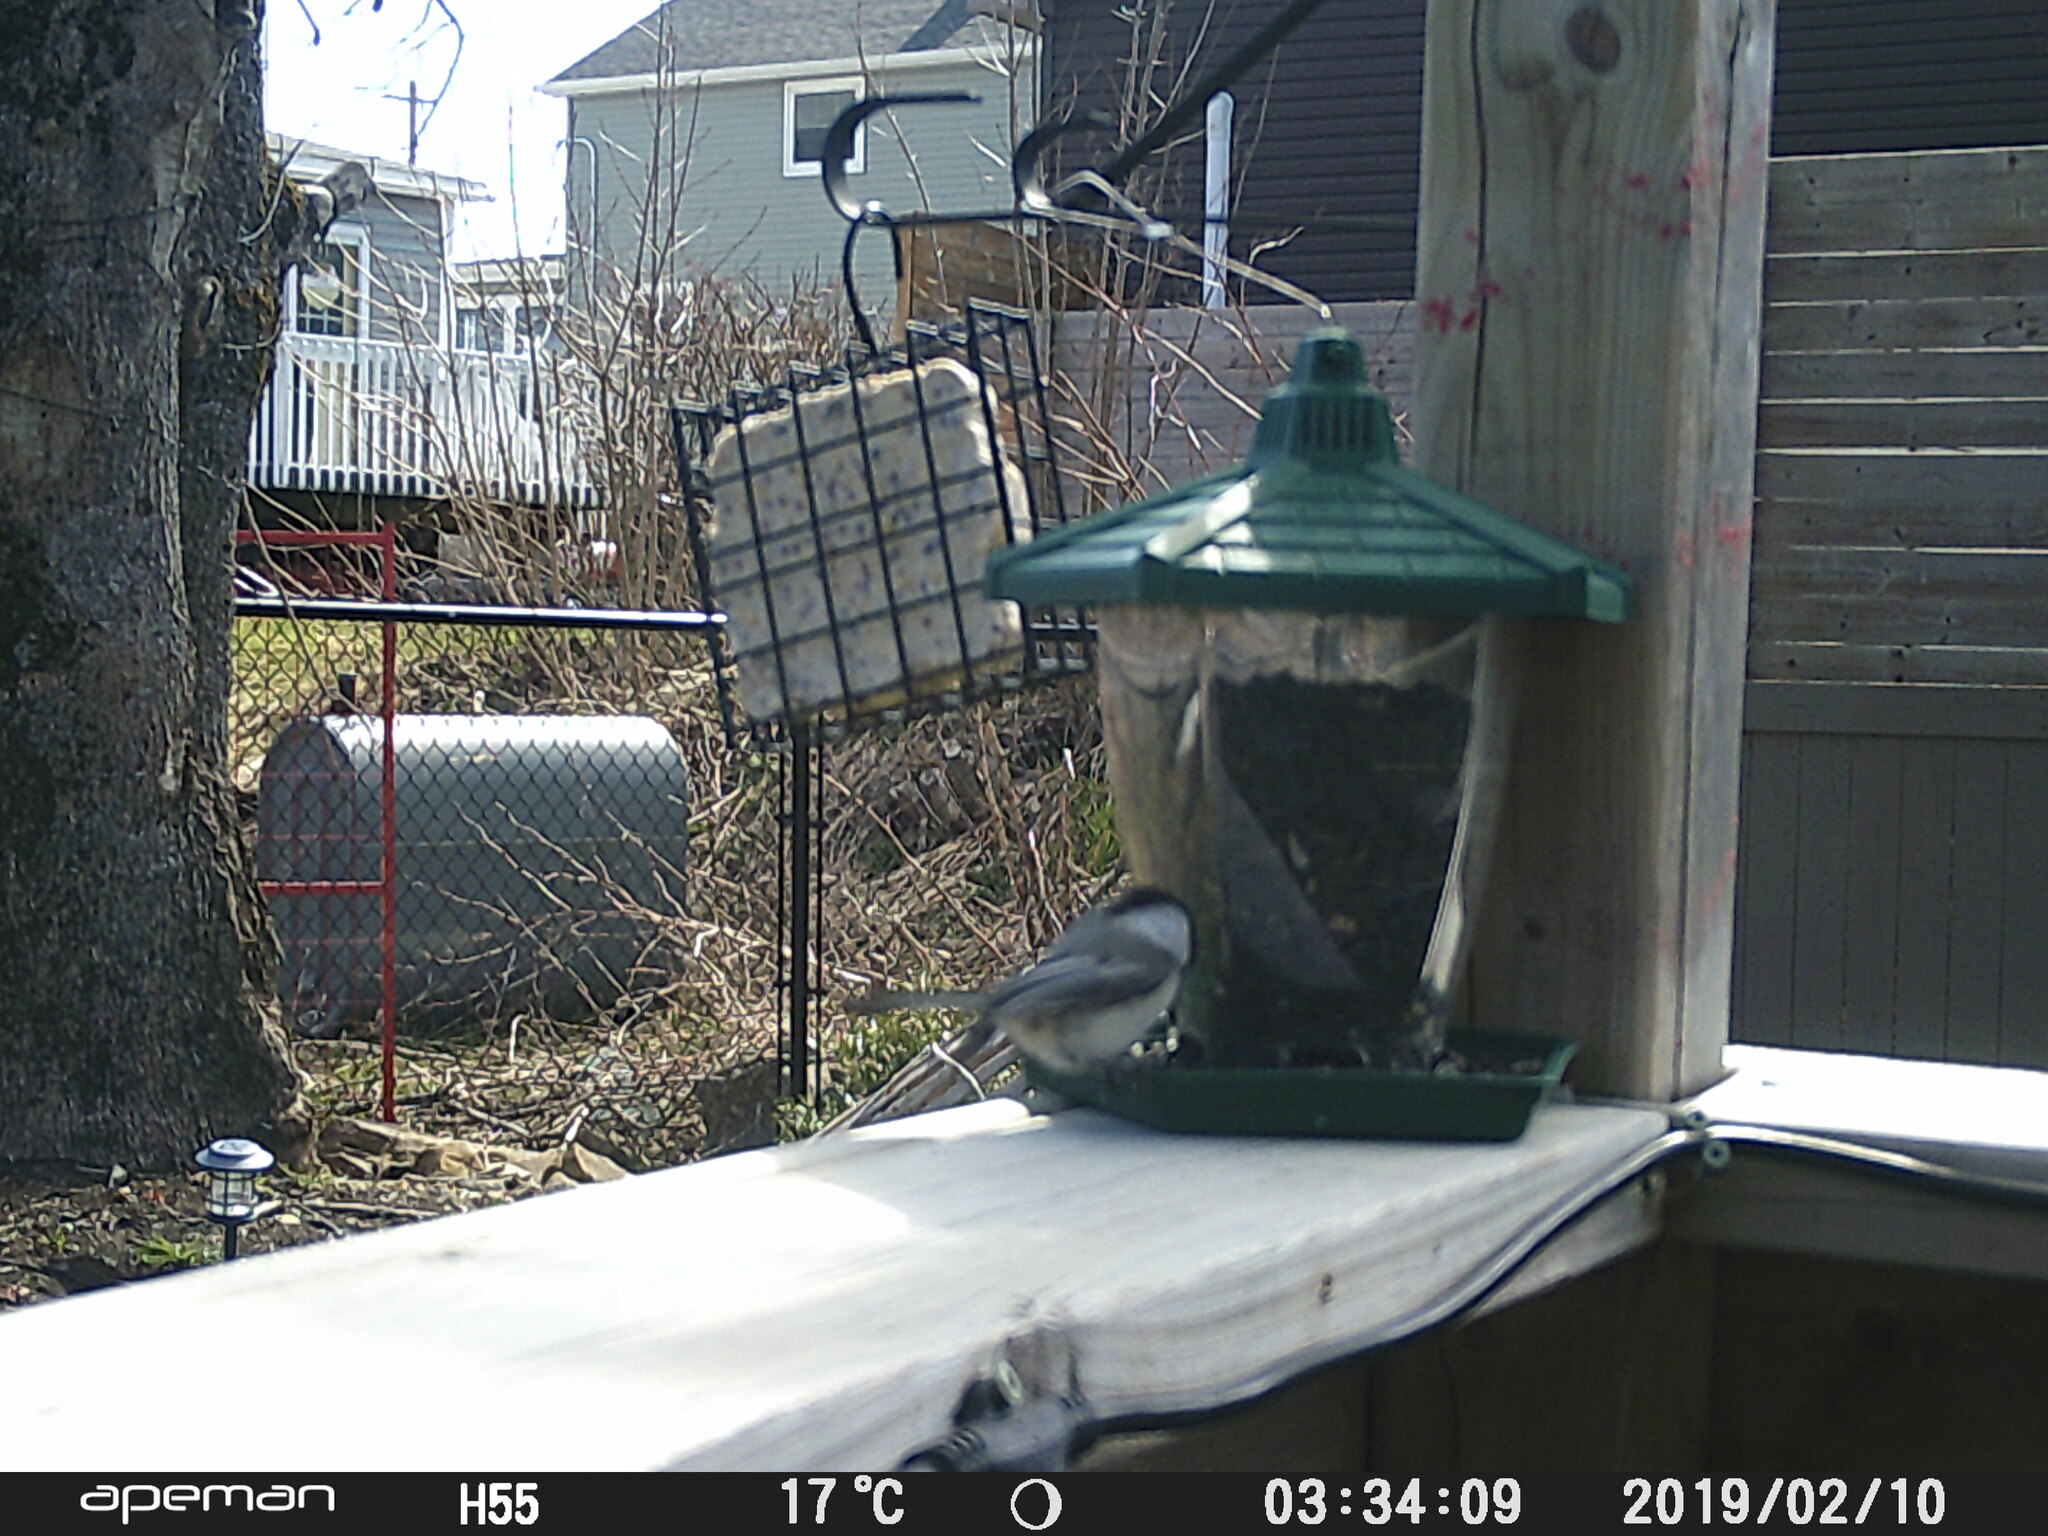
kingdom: Animalia
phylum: Chordata
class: Aves
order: Passeriformes
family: Paridae
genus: Poecile
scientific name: Poecile atricapillus
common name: Black-capped chickadee
